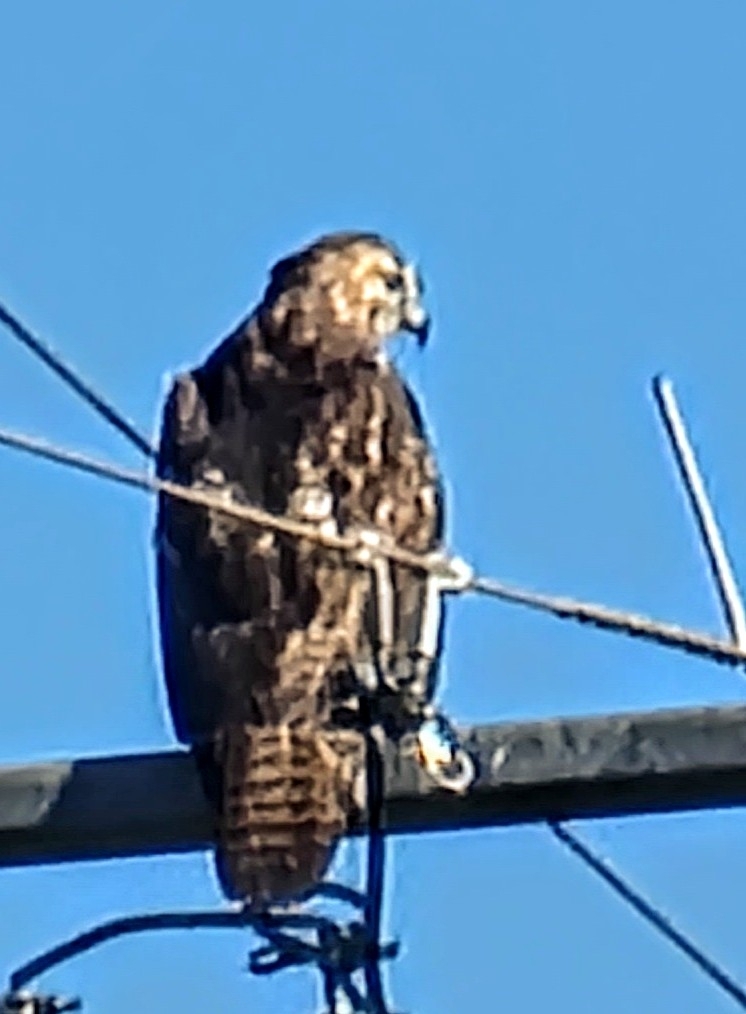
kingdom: Animalia
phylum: Chordata
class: Aves
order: Accipitriformes
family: Accipitridae
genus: Buteo
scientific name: Buteo jamaicensis
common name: Red-tailed hawk
